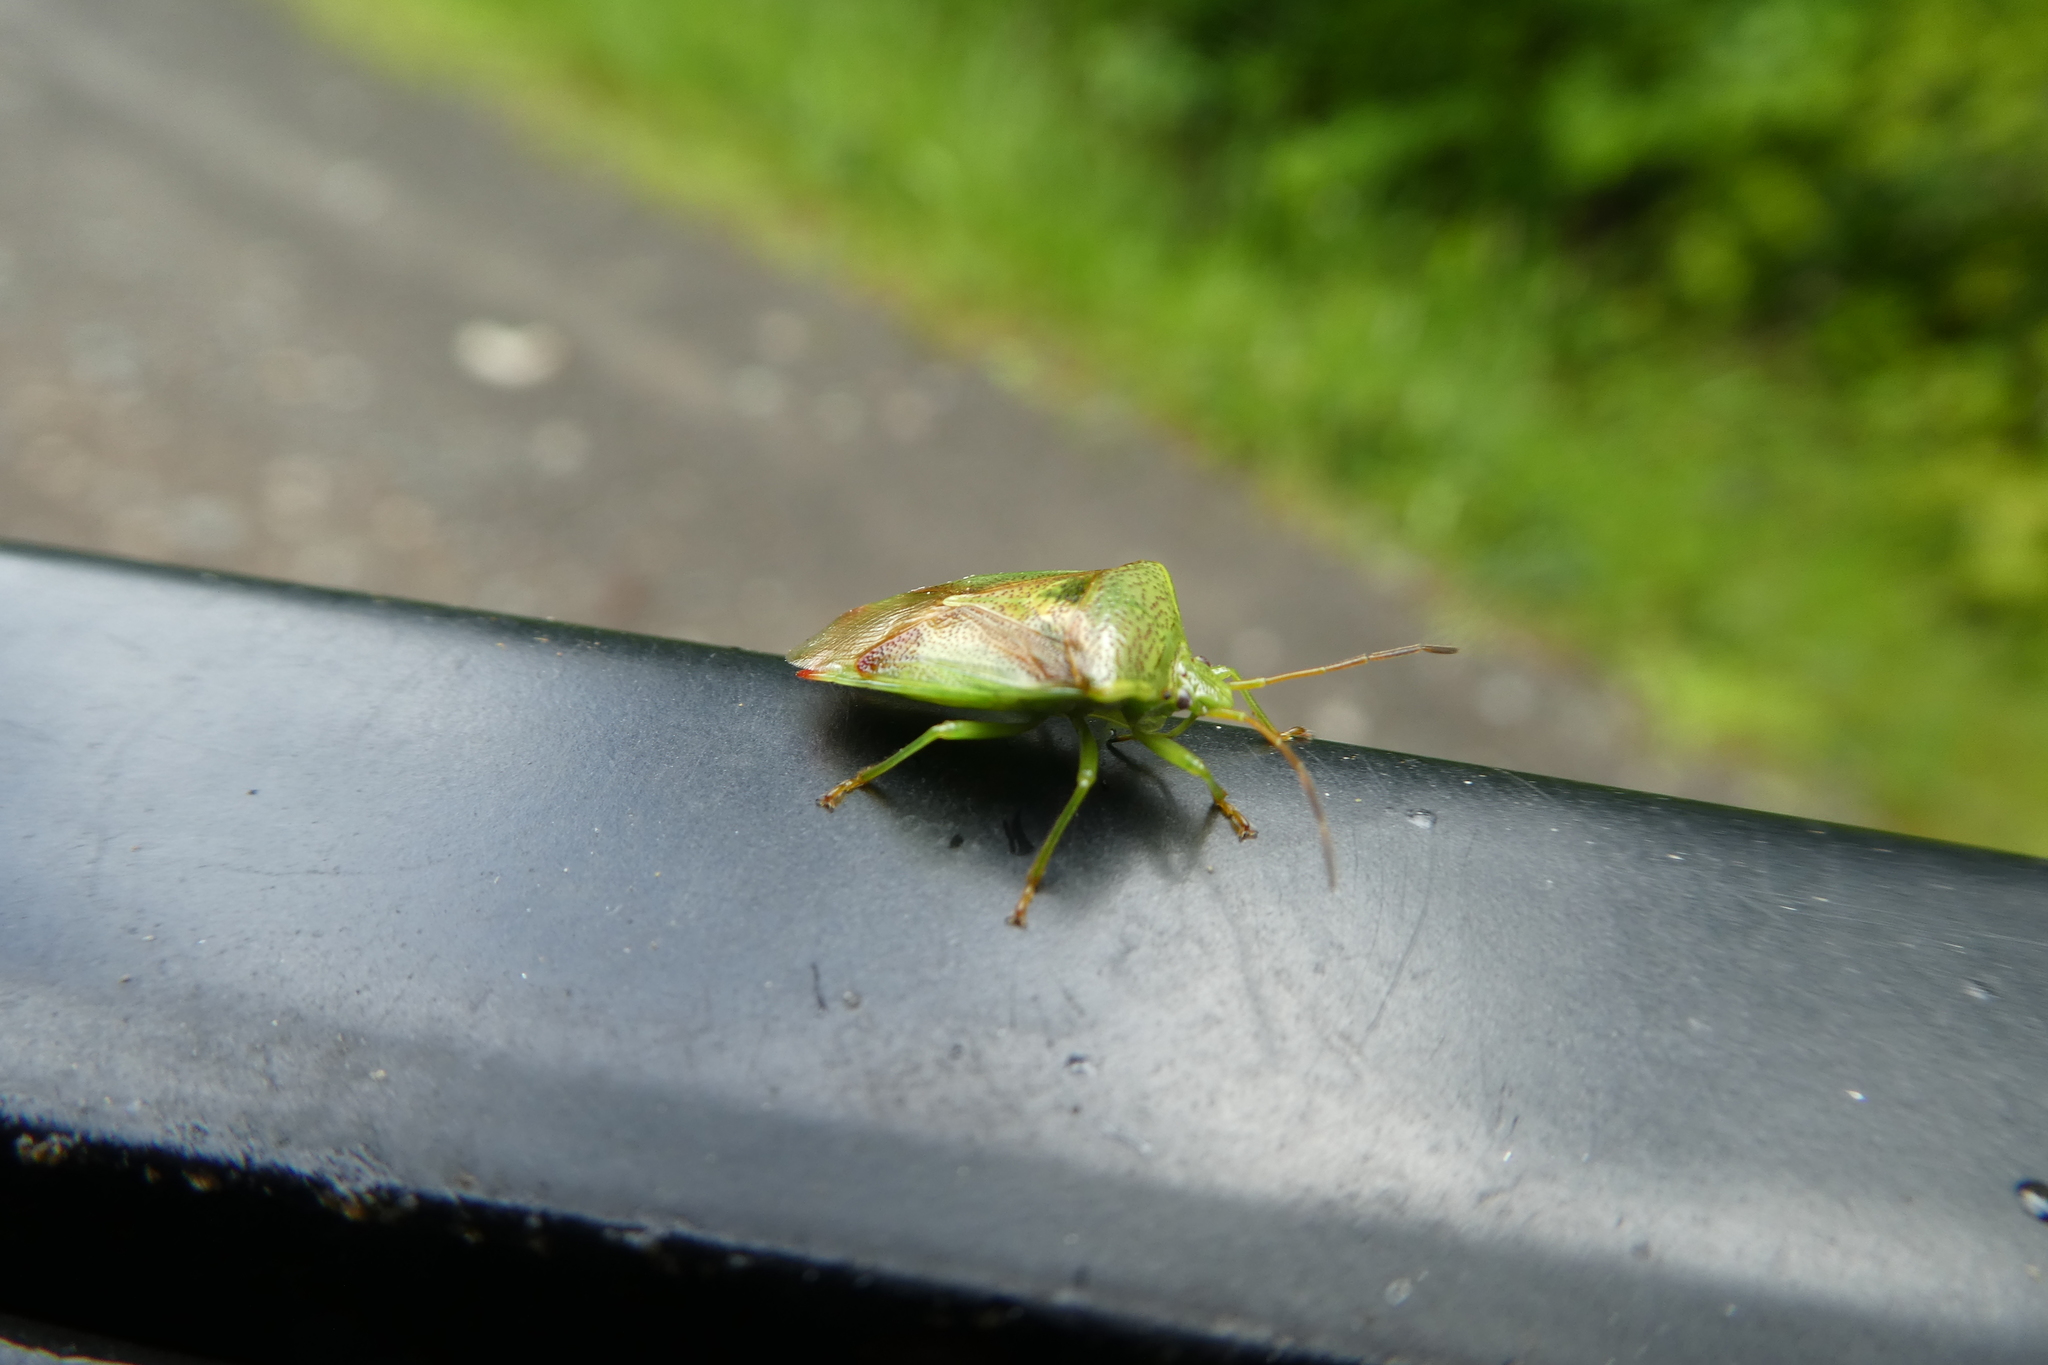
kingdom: Animalia
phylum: Arthropoda
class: Insecta
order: Hemiptera
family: Acanthosomatidae
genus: Elasmostethus
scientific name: Elasmostethus cruciatus
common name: Red-cross shield bug
